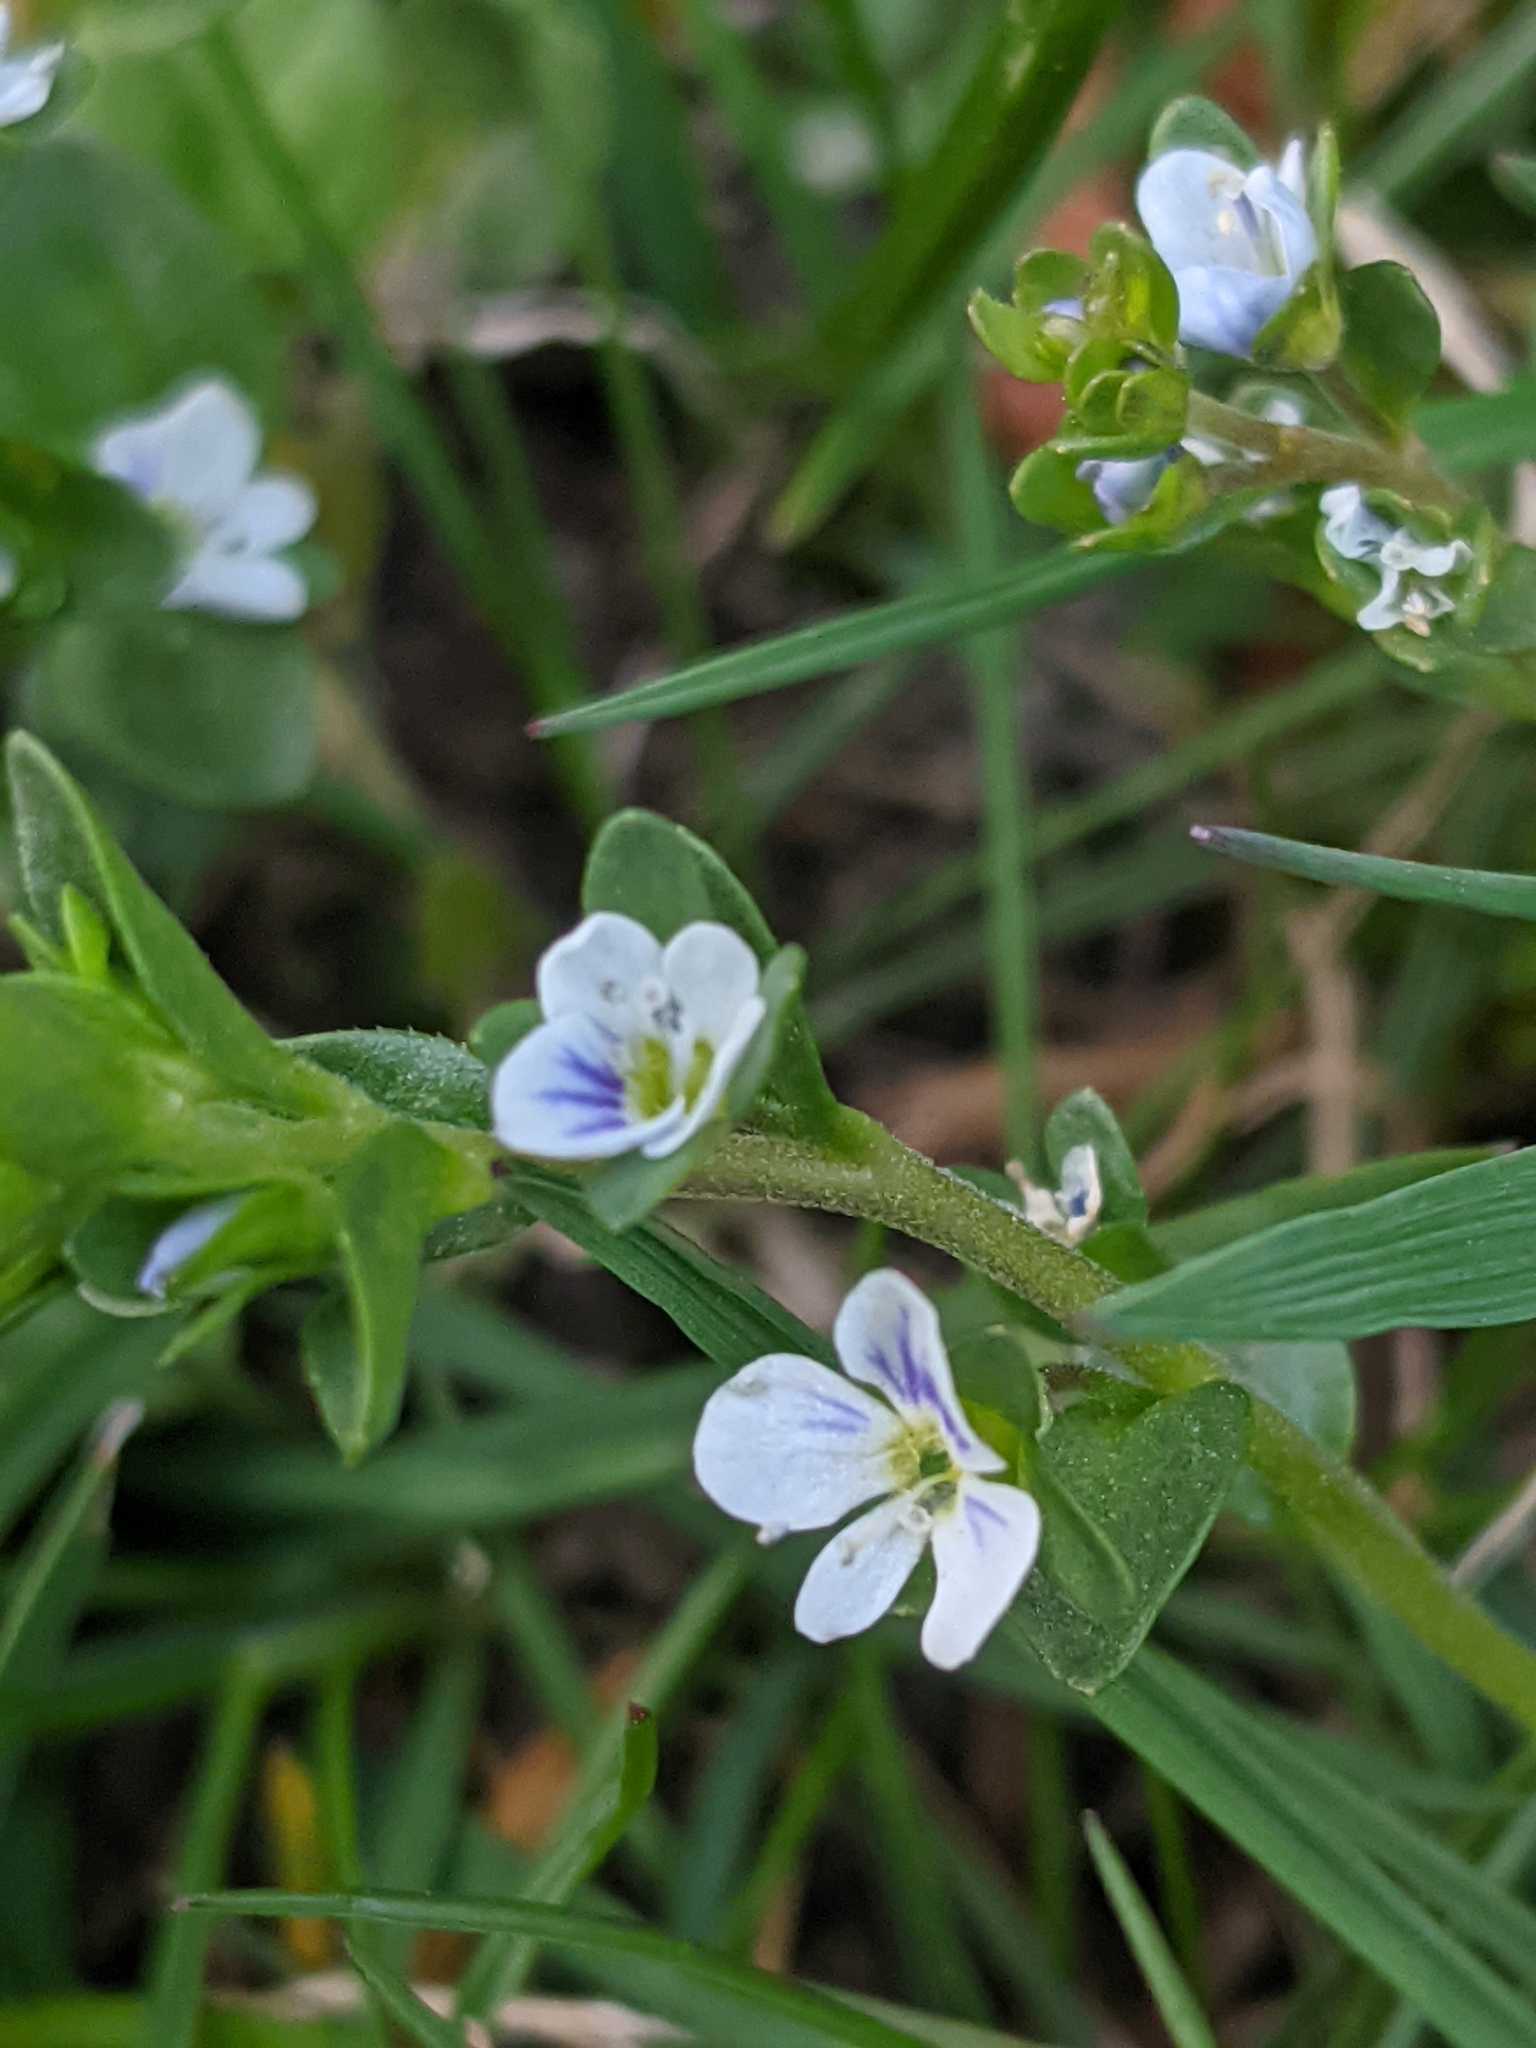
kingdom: Plantae
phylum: Tracheophyta
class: Magnoliopsida
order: Lamiales
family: Plantaginaceae
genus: Veronica
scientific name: Veronica serpyllifolia
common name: Thyme-leaved speedwell
